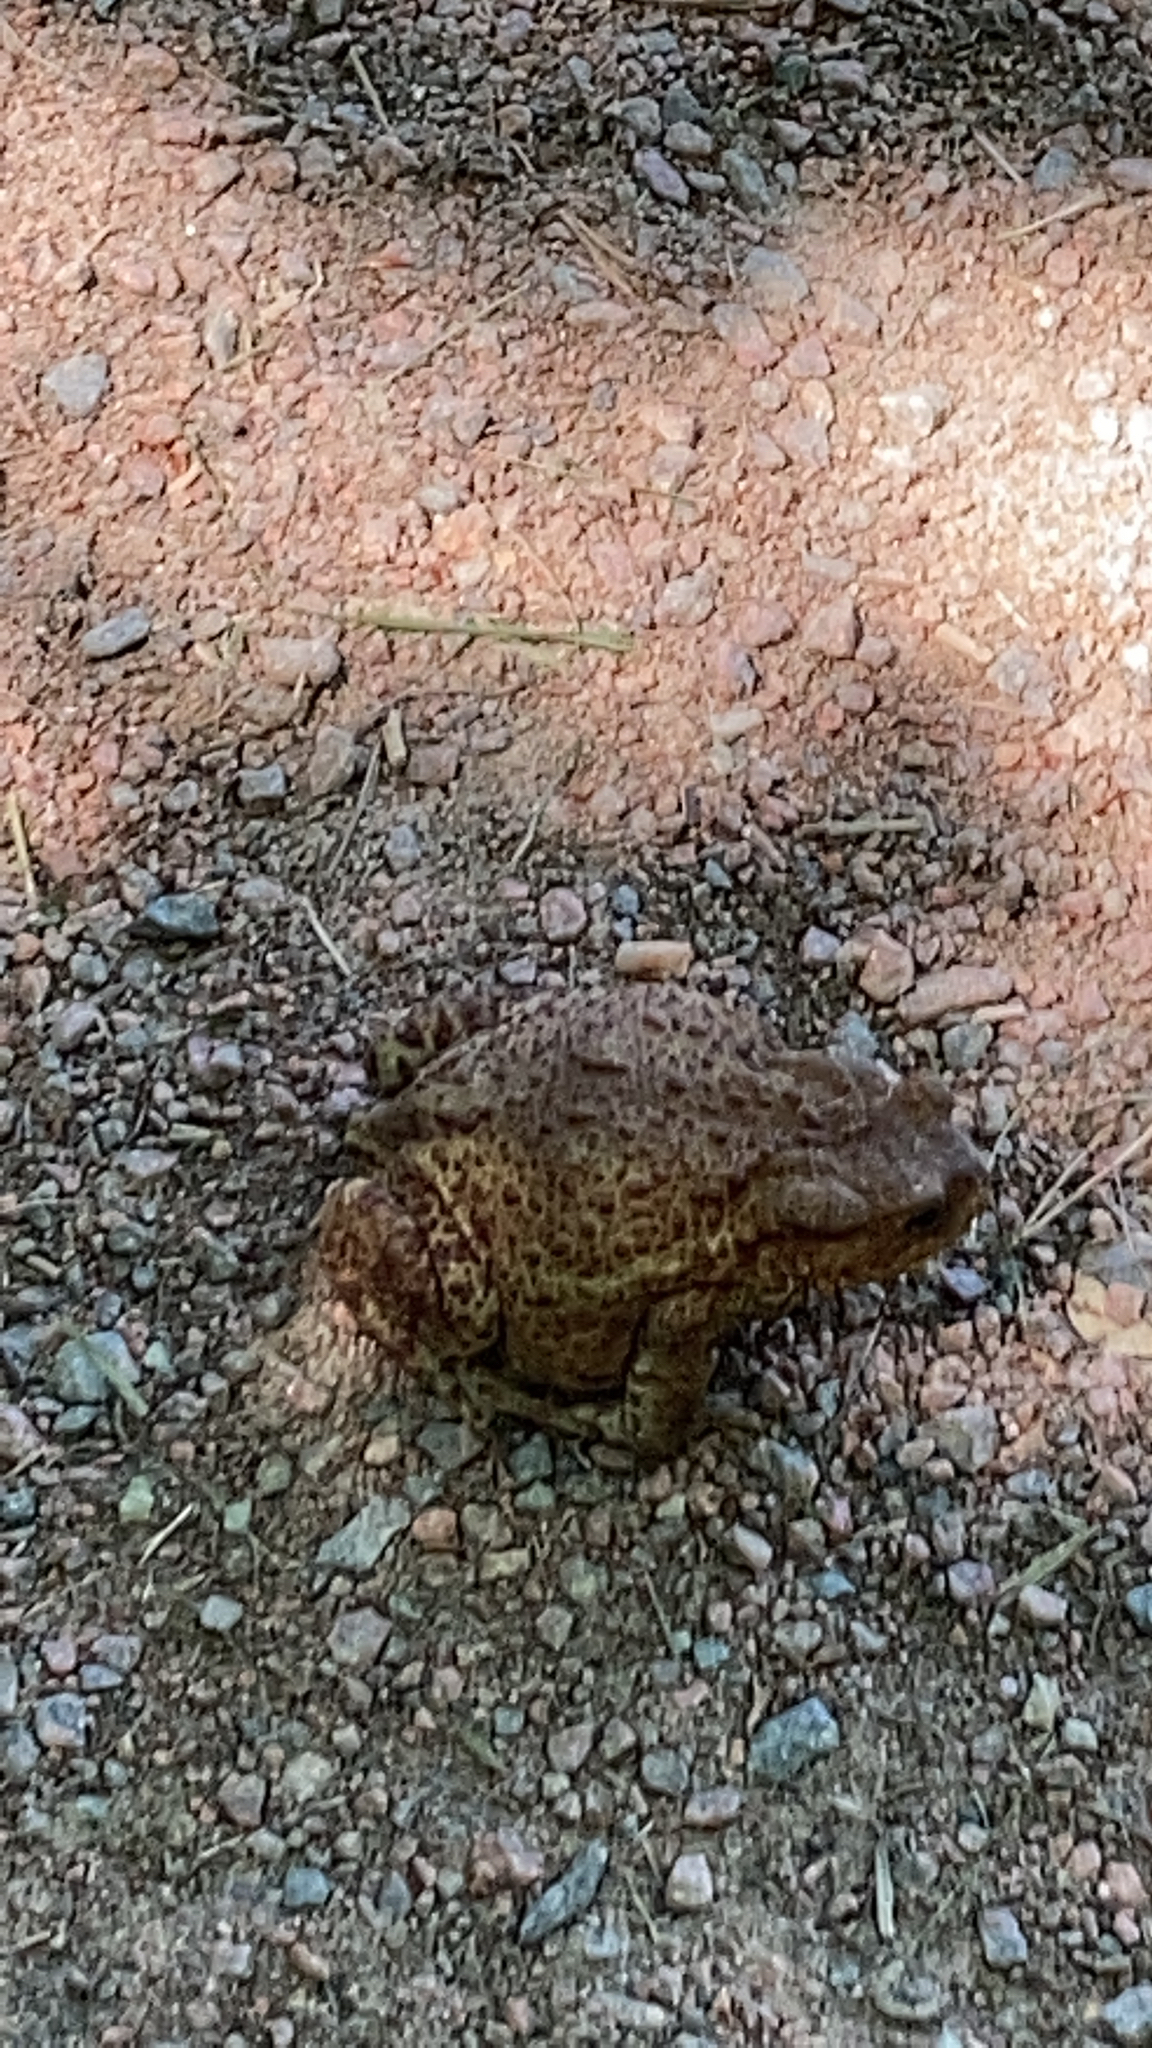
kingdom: Animalia
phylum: Chordata
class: Amphibia
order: Anura
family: Bufonidae
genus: Bufo
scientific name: Bufo bufo
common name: Common toad
